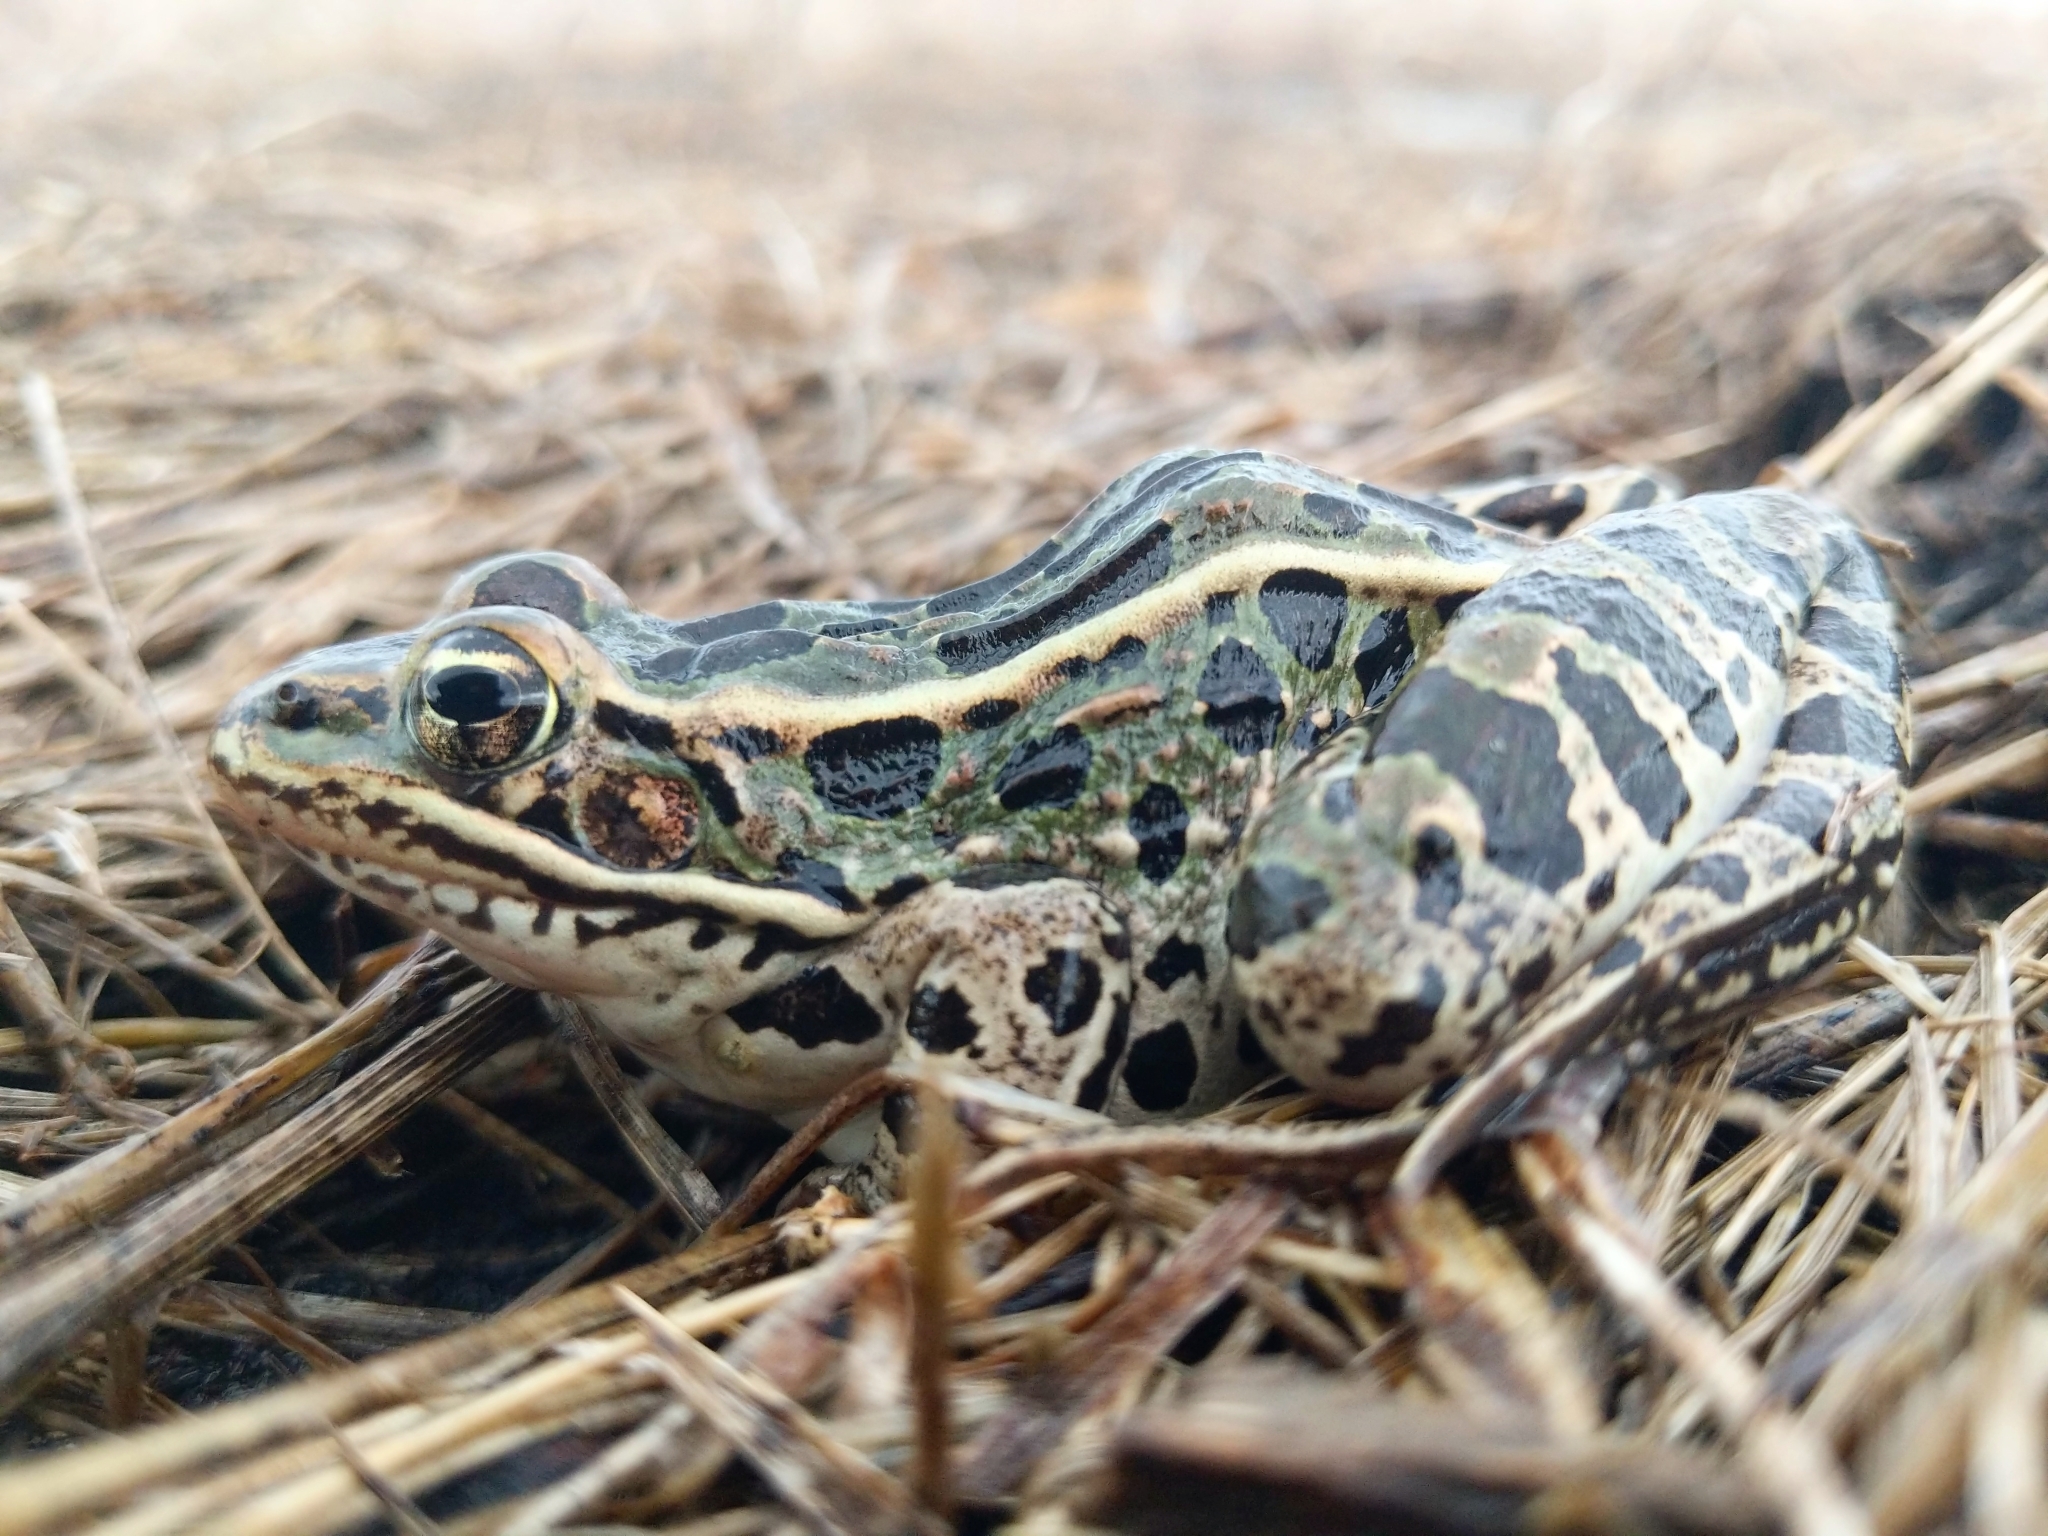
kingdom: Animalia
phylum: Chordata
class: Amphibia
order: Anura
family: Ranidae
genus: Lithobates
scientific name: Lithobates pipiens
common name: Northern leopard frog
